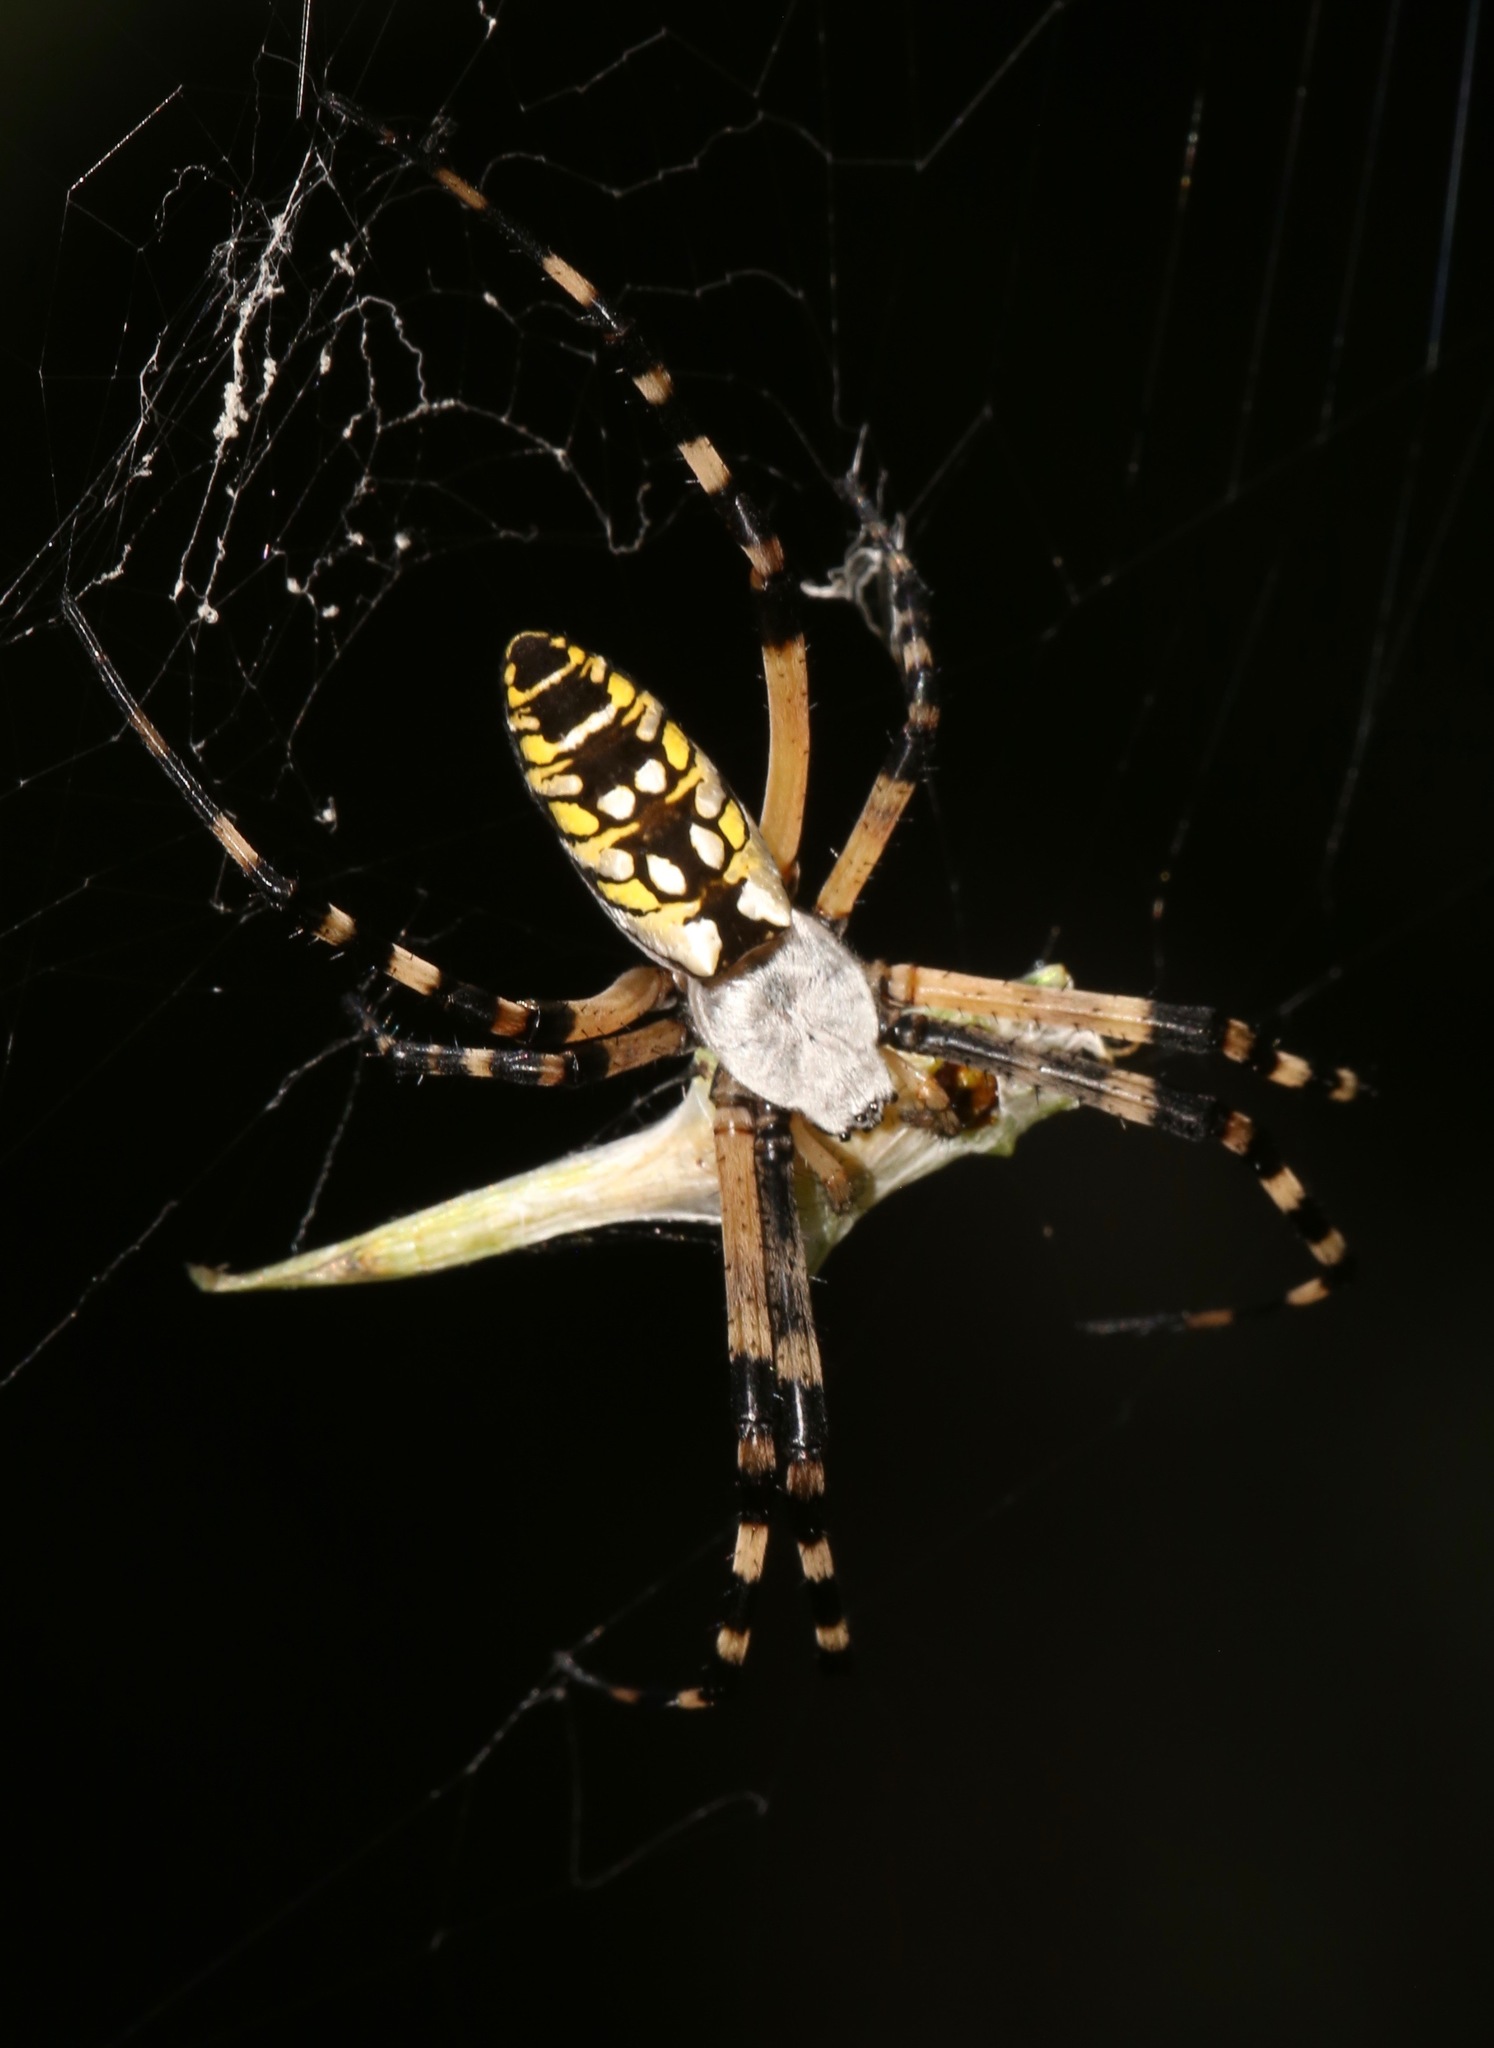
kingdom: Animalia
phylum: Arthropoda
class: Arachnida
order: Araneae
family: Araneidae
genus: Argiope
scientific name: Argiope aurantia
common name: Orb weavers
